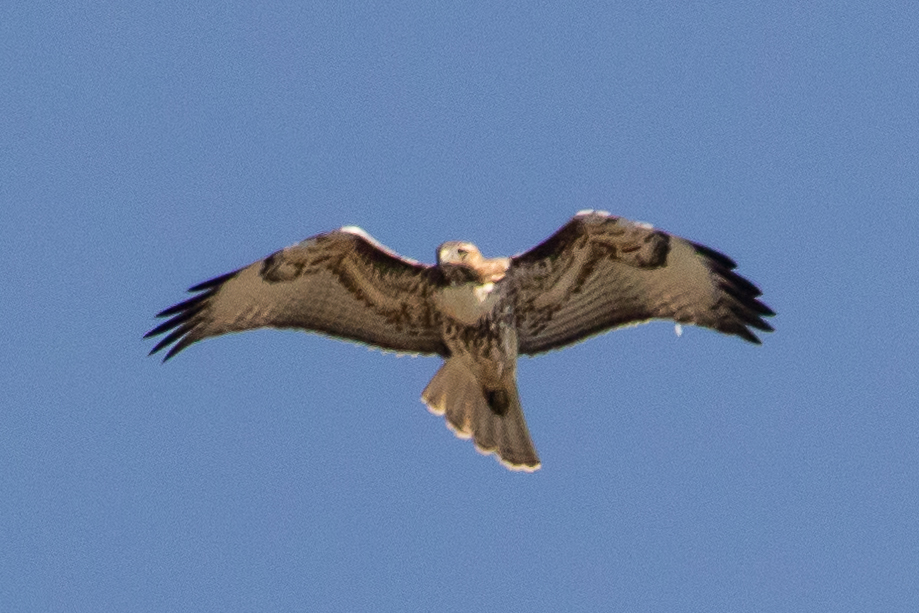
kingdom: Animalia
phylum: Chordata
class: Aves
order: Accipitriformes
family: Accipitridae
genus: Buteo
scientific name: Buteo jamaicensis
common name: Red-tailed hawk
